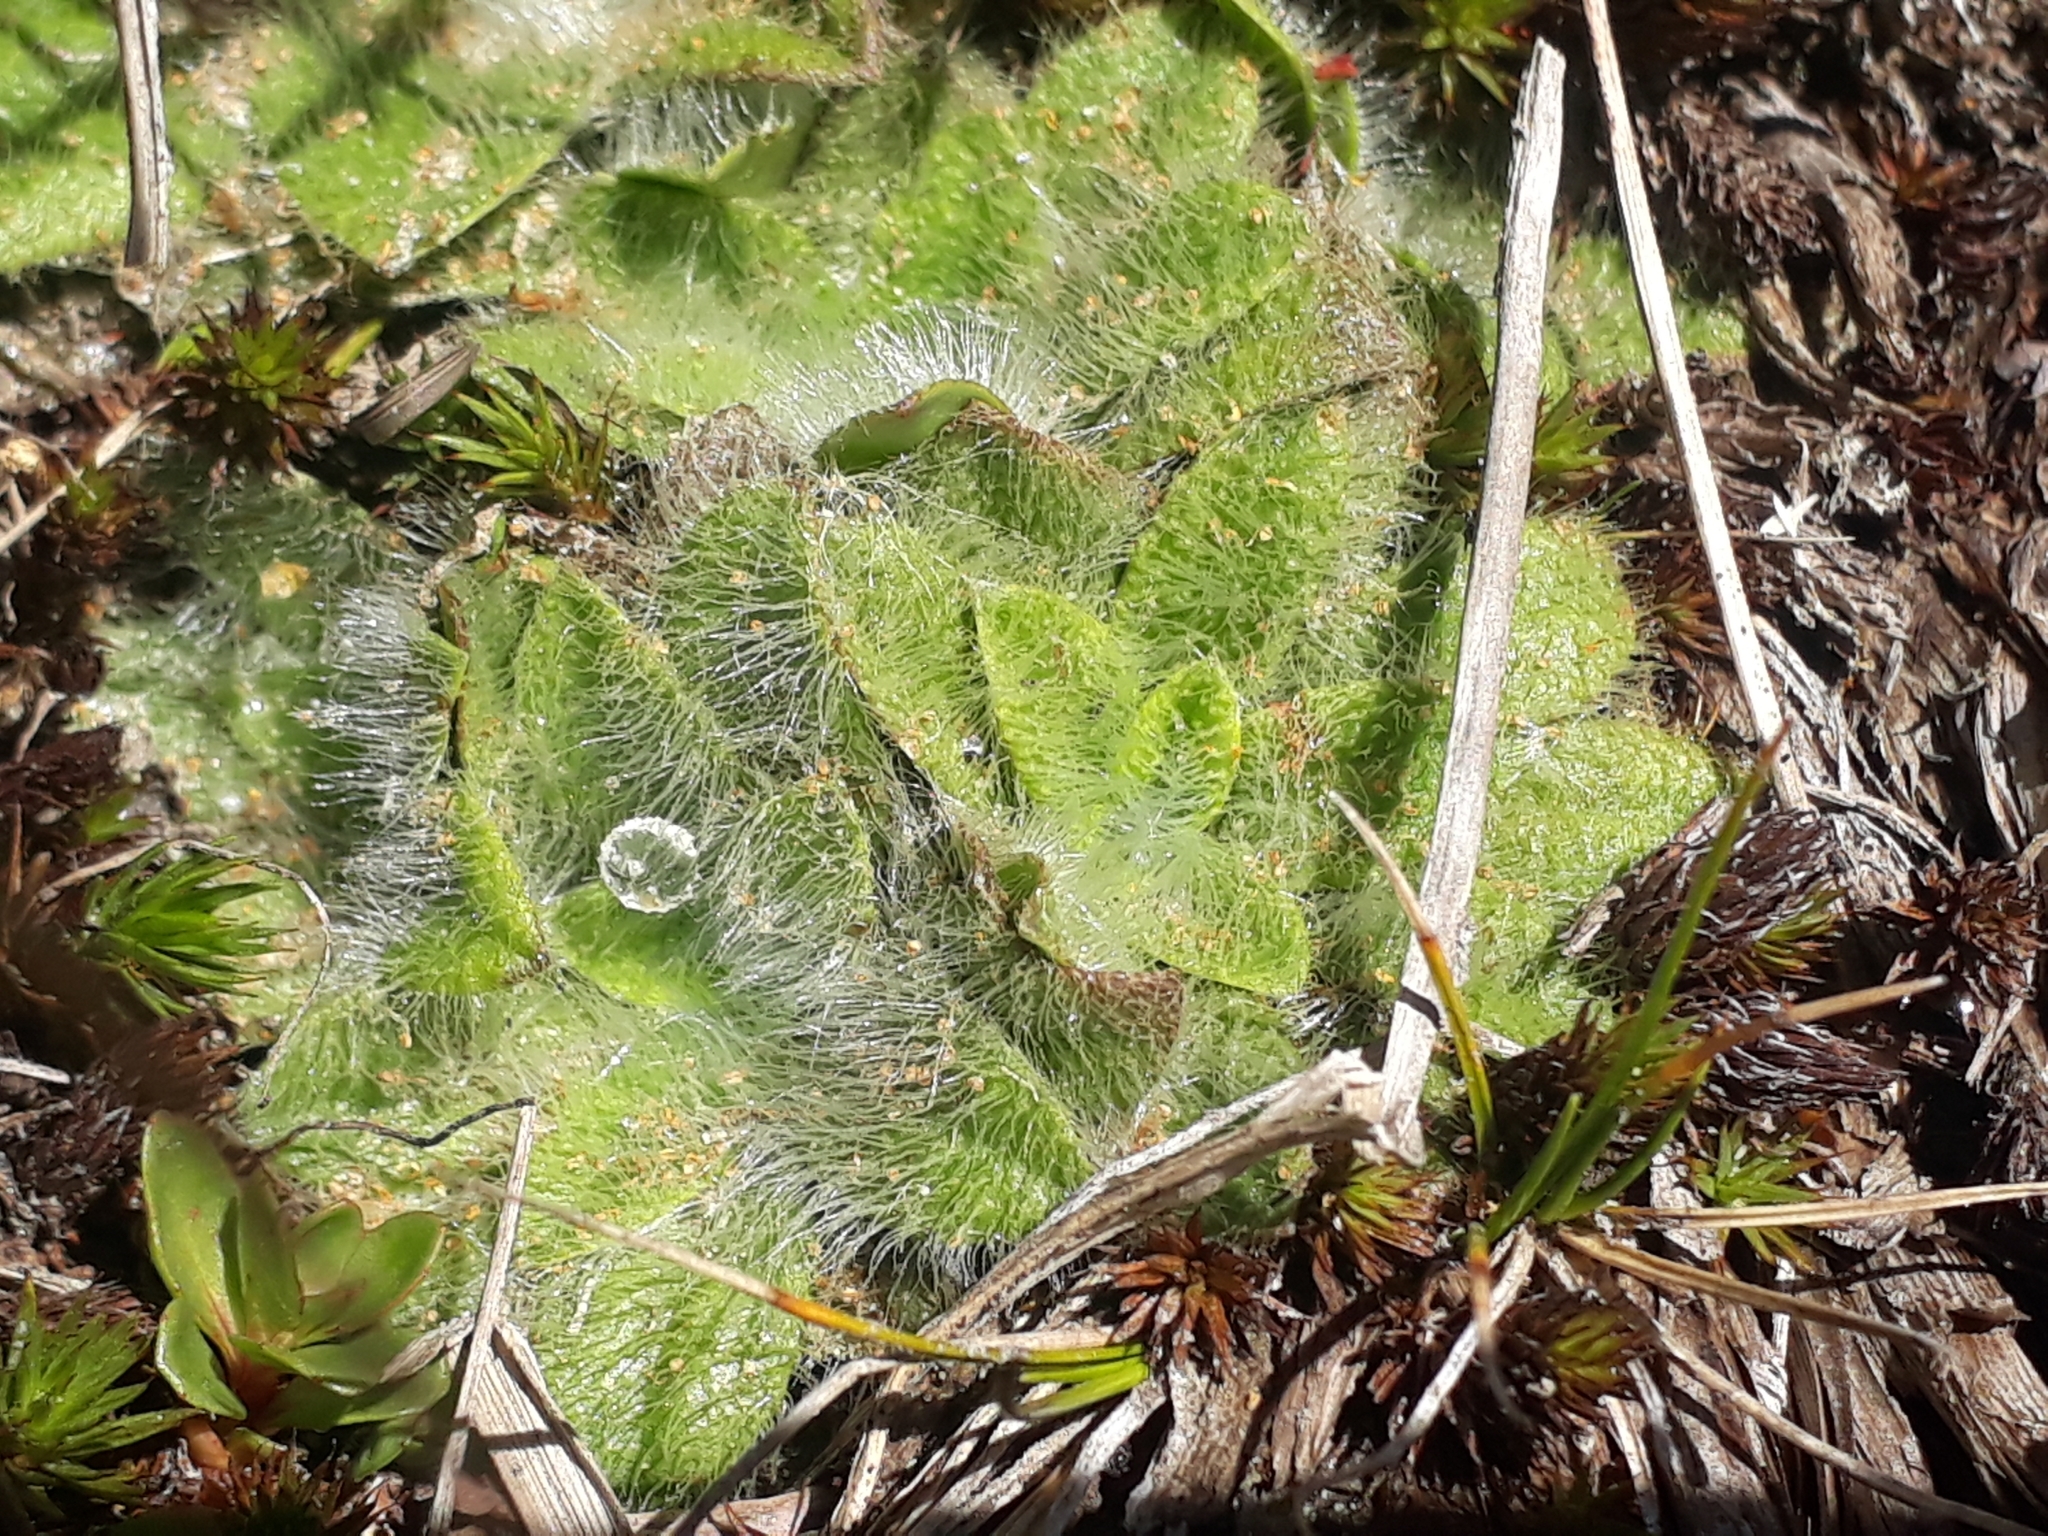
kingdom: Plantae
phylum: Tracheophyta
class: Magnoliopsida
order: Lamiales
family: Plantaginaceae
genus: Plantago
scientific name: Plantago lanigera
